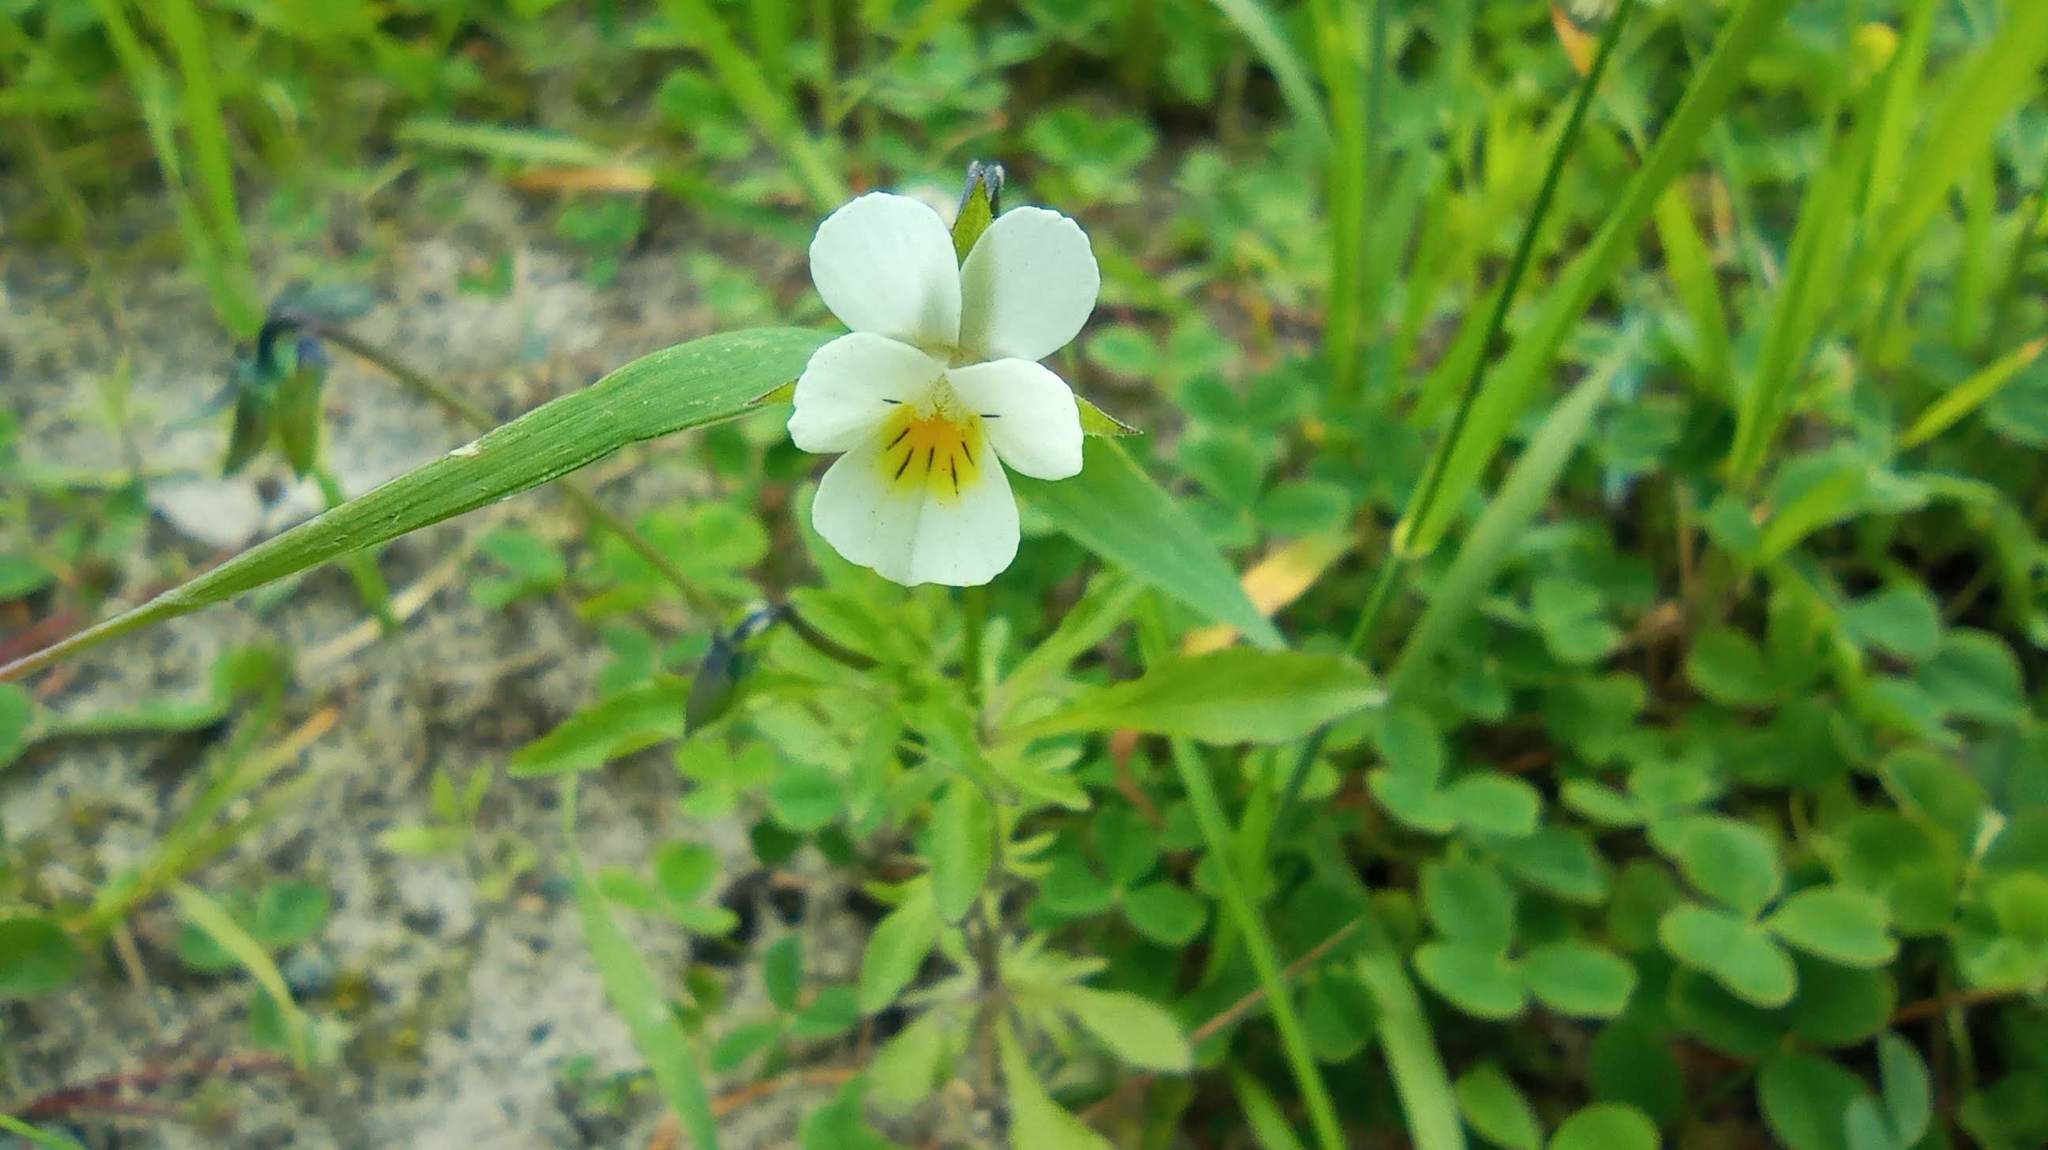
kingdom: Plantae
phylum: Tracheophyta
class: Magnoliopsida
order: Malpighiales
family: Violaceae
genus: Viola
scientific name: Viola arvensis
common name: Field pansy
